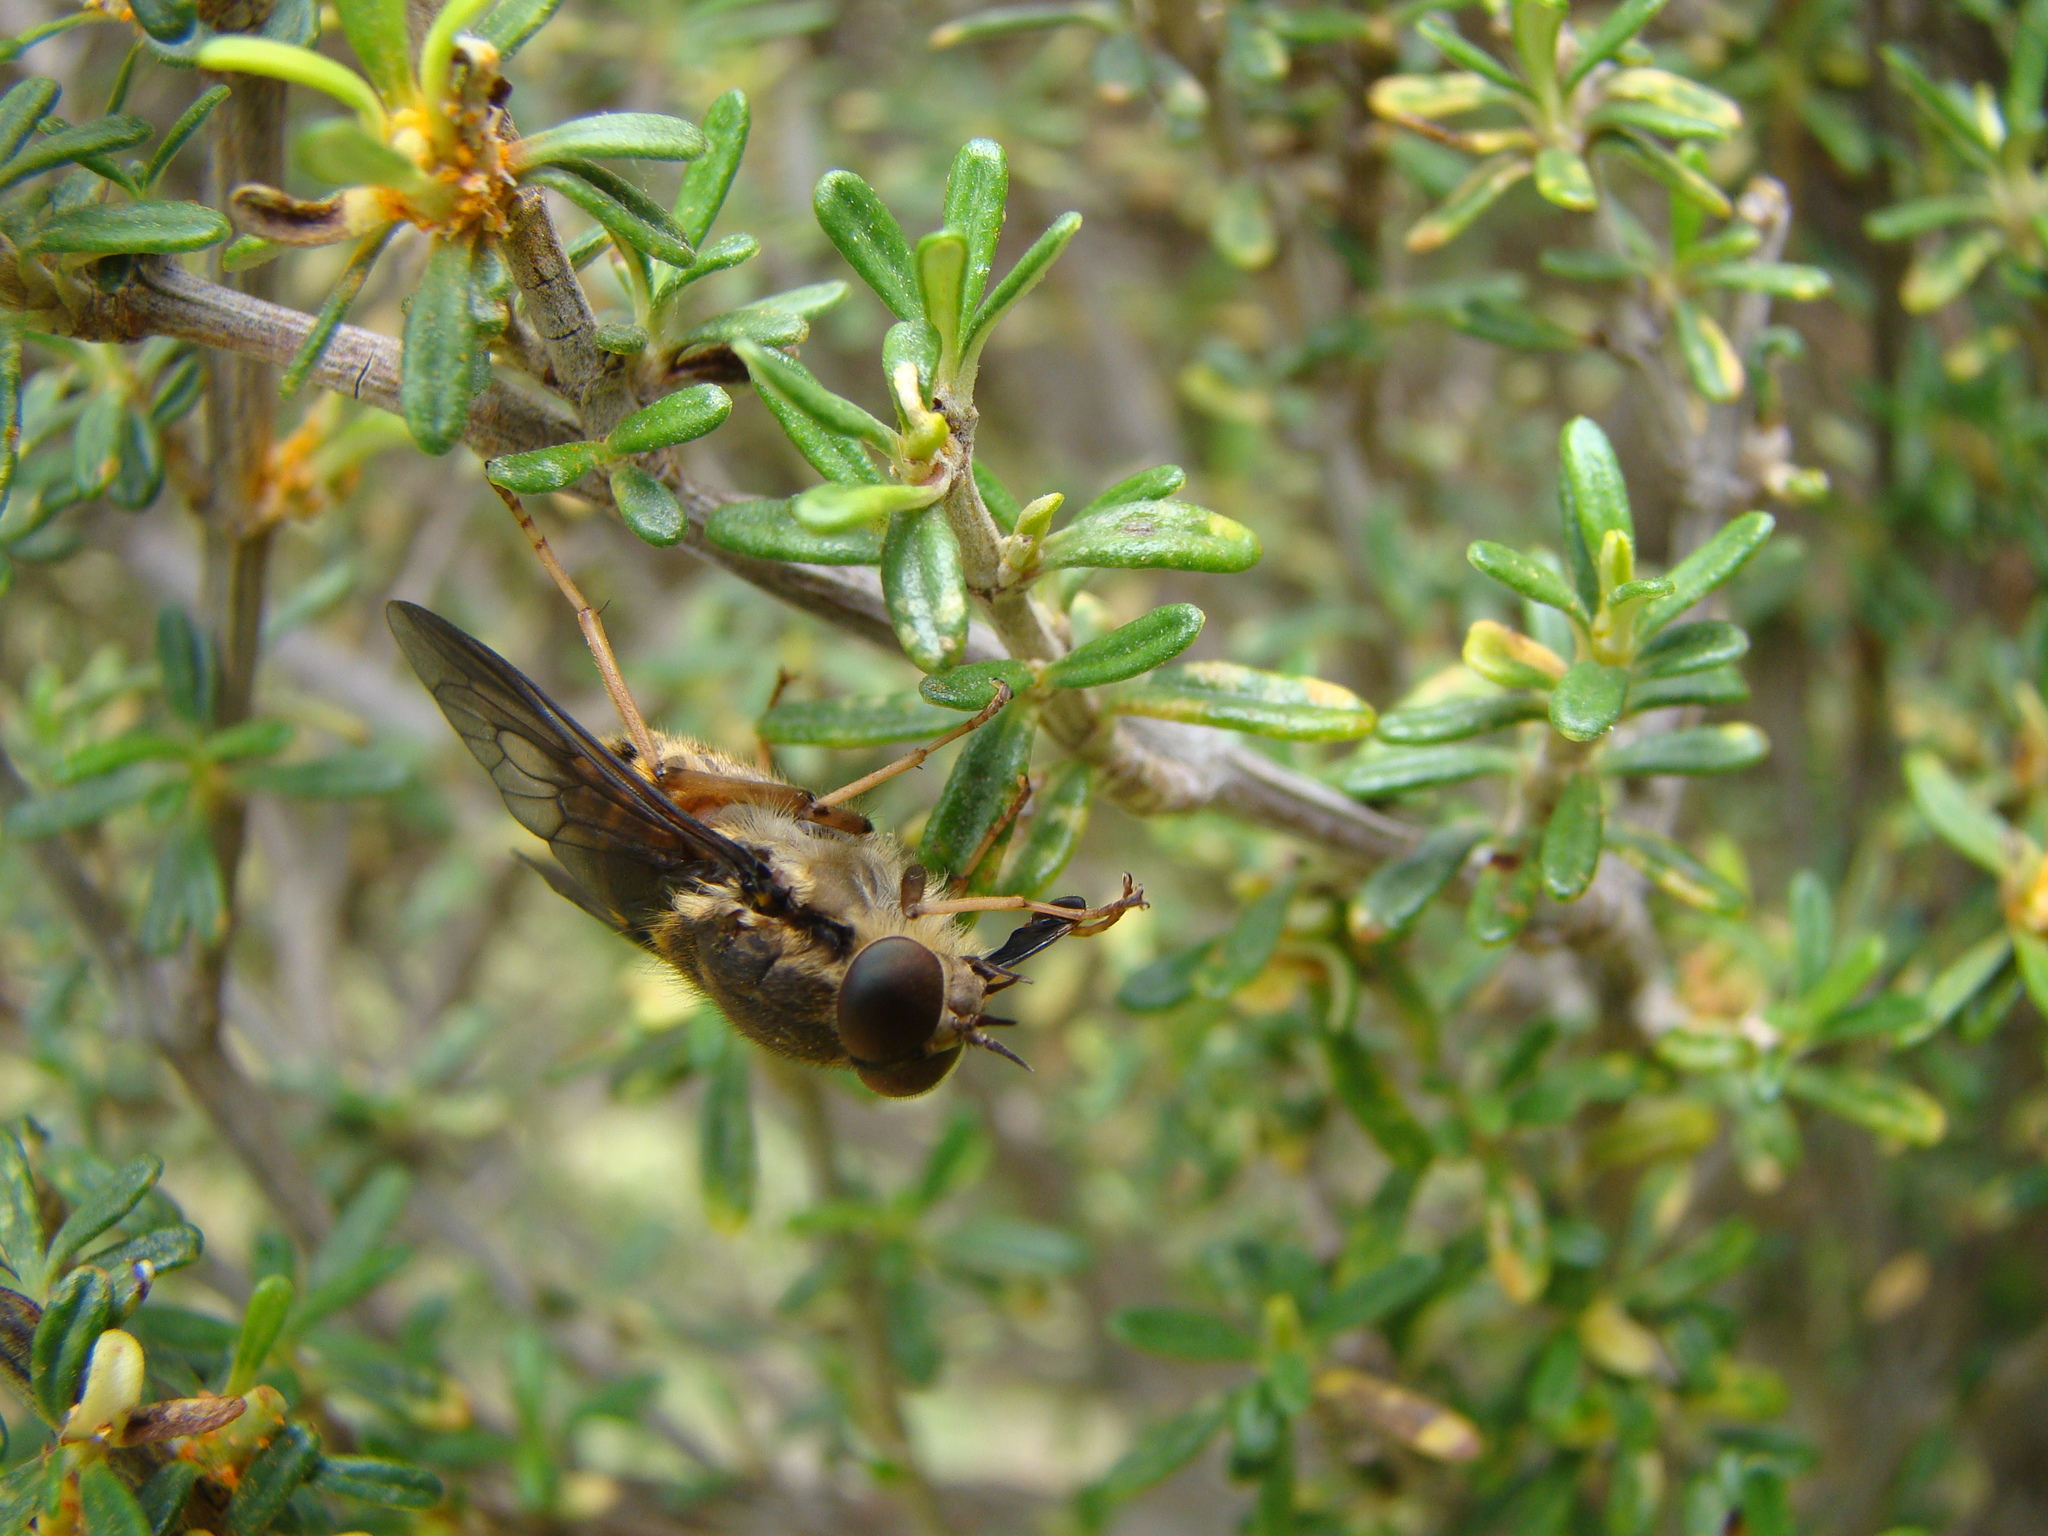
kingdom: Animalia
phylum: Arthropoda
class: Insecta
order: Diptera
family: Tabanidae
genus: Scaptia
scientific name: Scaptia
